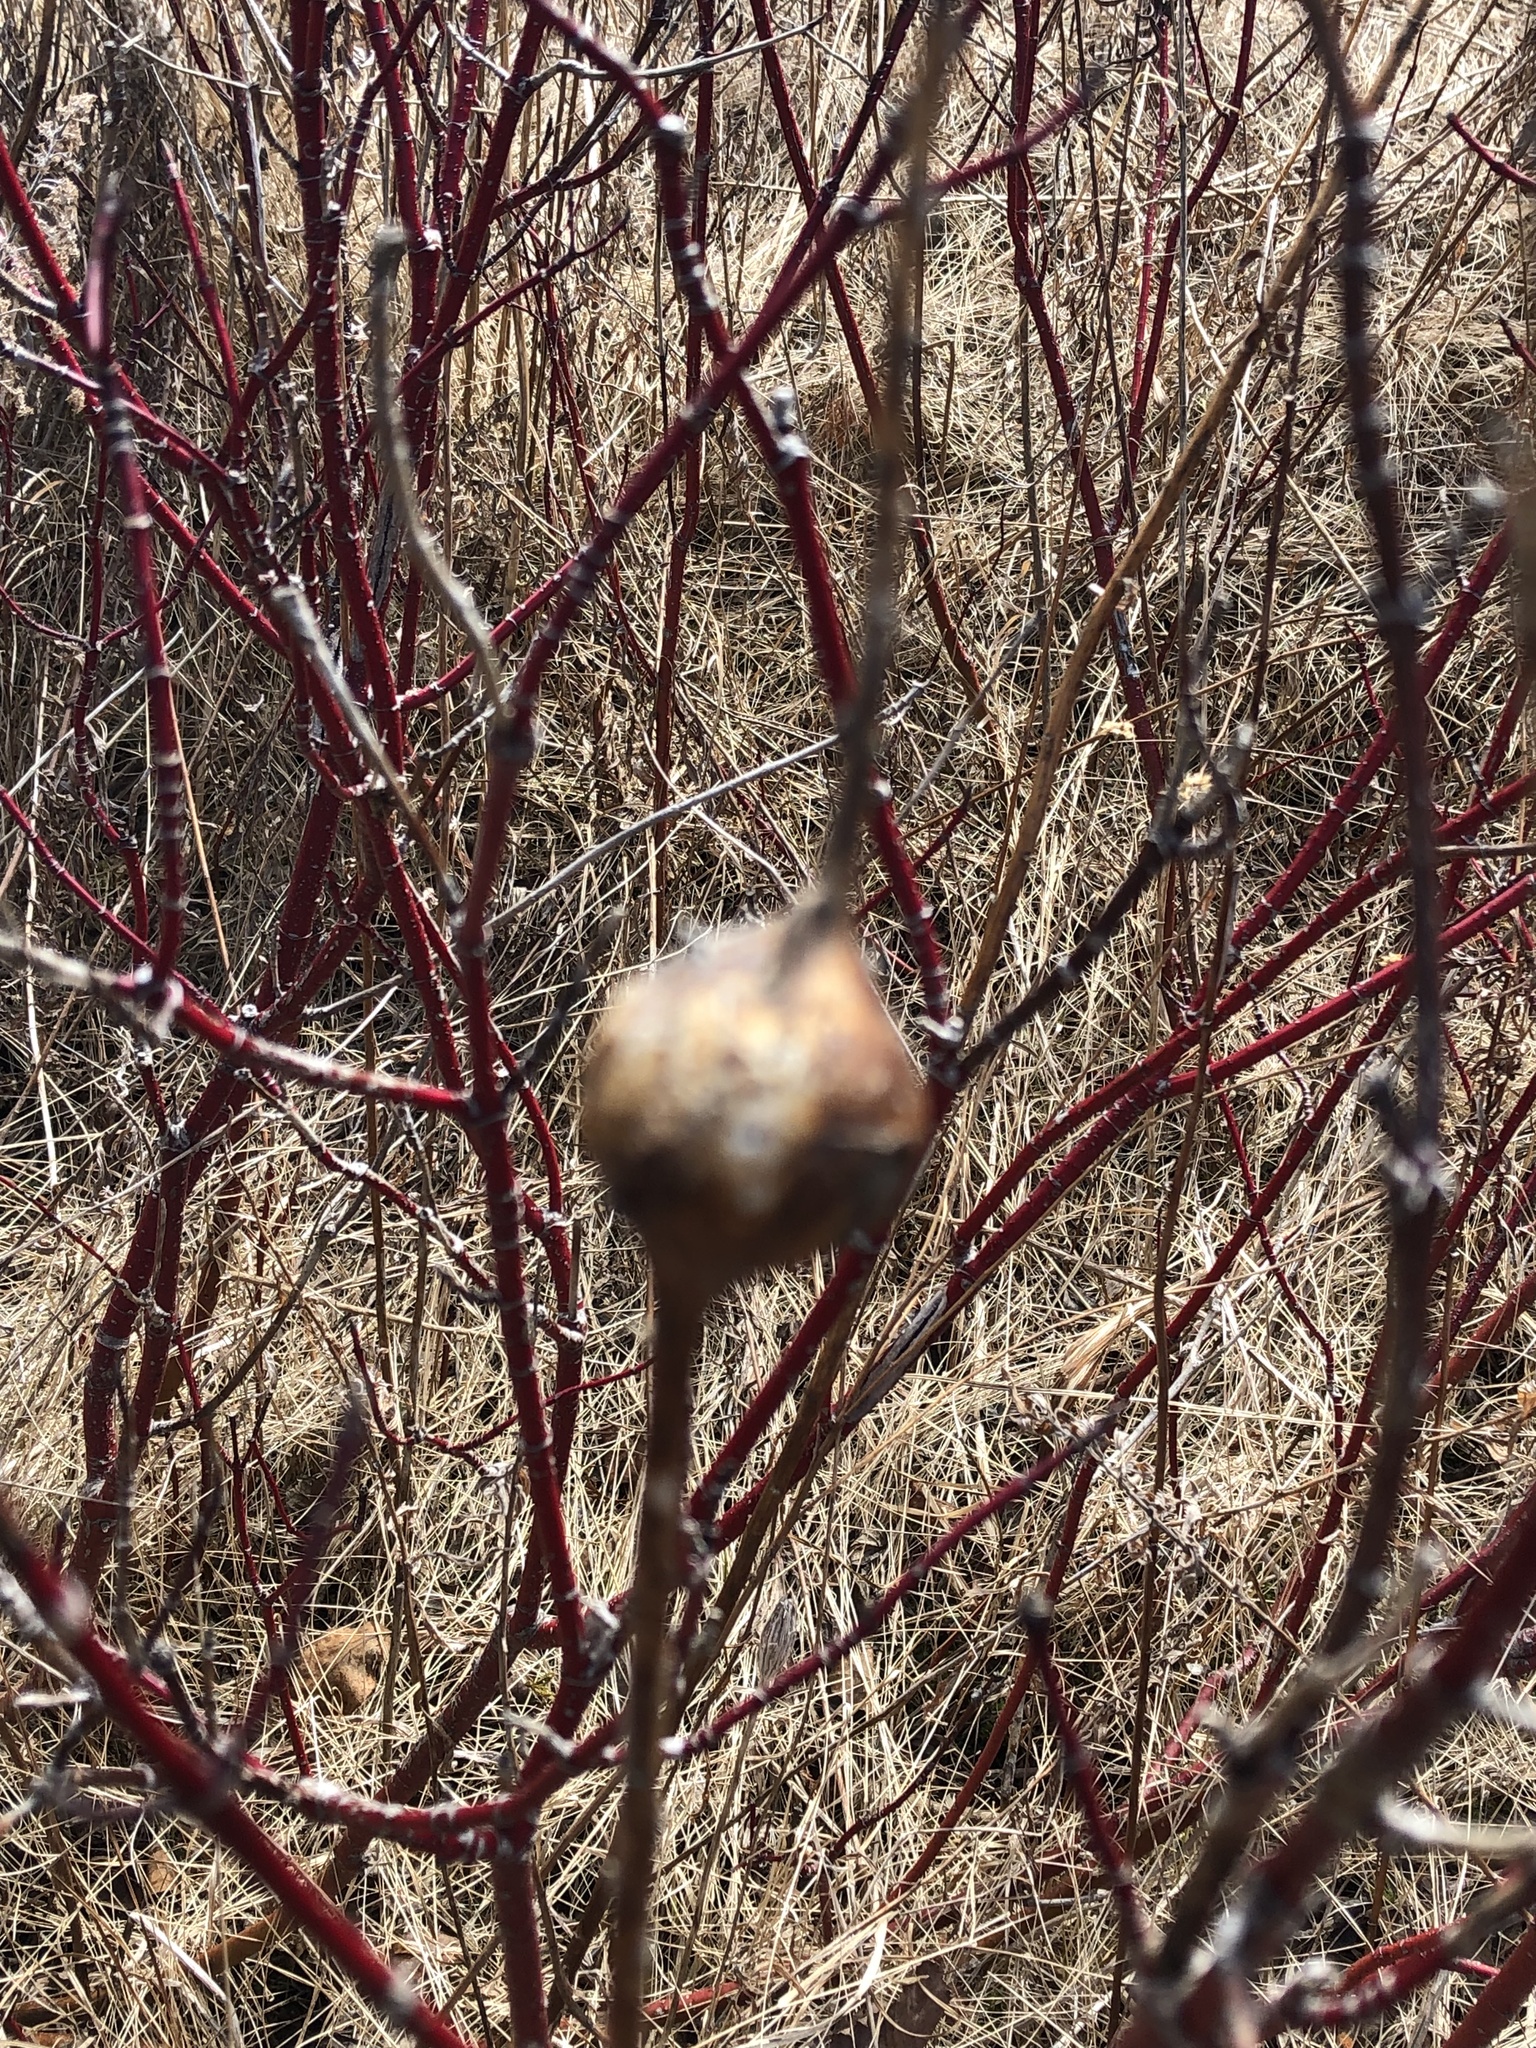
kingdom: Animalia
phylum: Arthropoda
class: Insecta
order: Diptera
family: Tephritidae
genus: Eurosta
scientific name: Eurosta solidaginis
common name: Goldenrod gall fly
